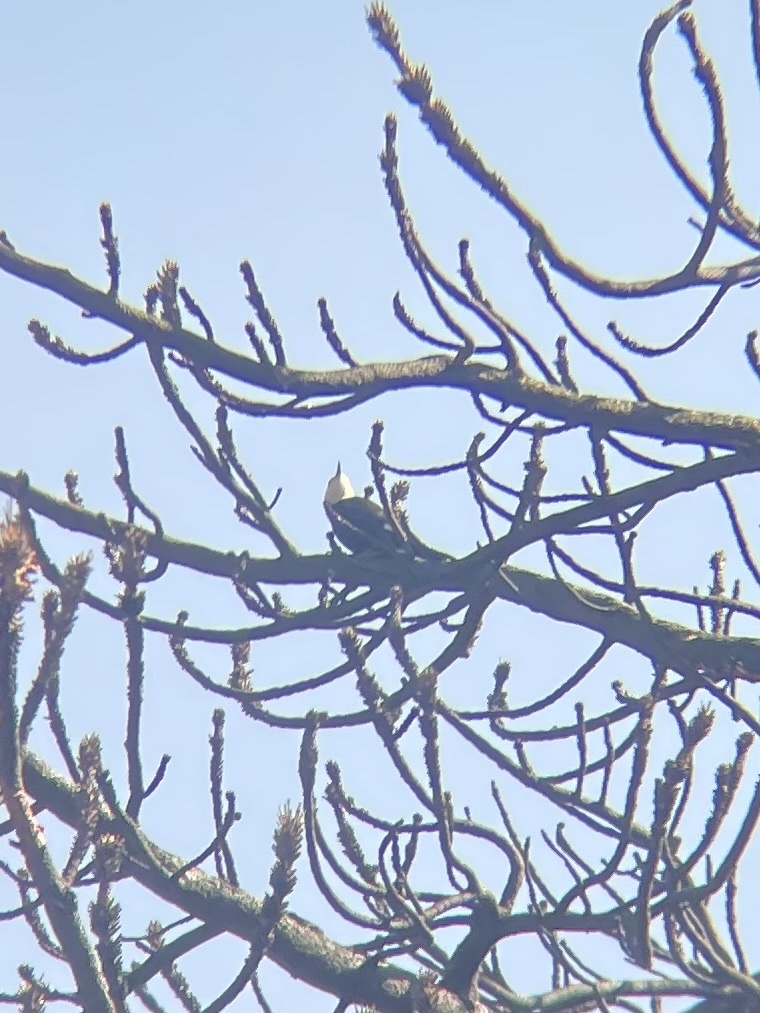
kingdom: Animalia
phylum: Chordata
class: Aves
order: Piciformes
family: Picidae
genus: Leuconotopicus
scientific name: Leuconotopicus albolarvatus
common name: White-headed woodpecker
